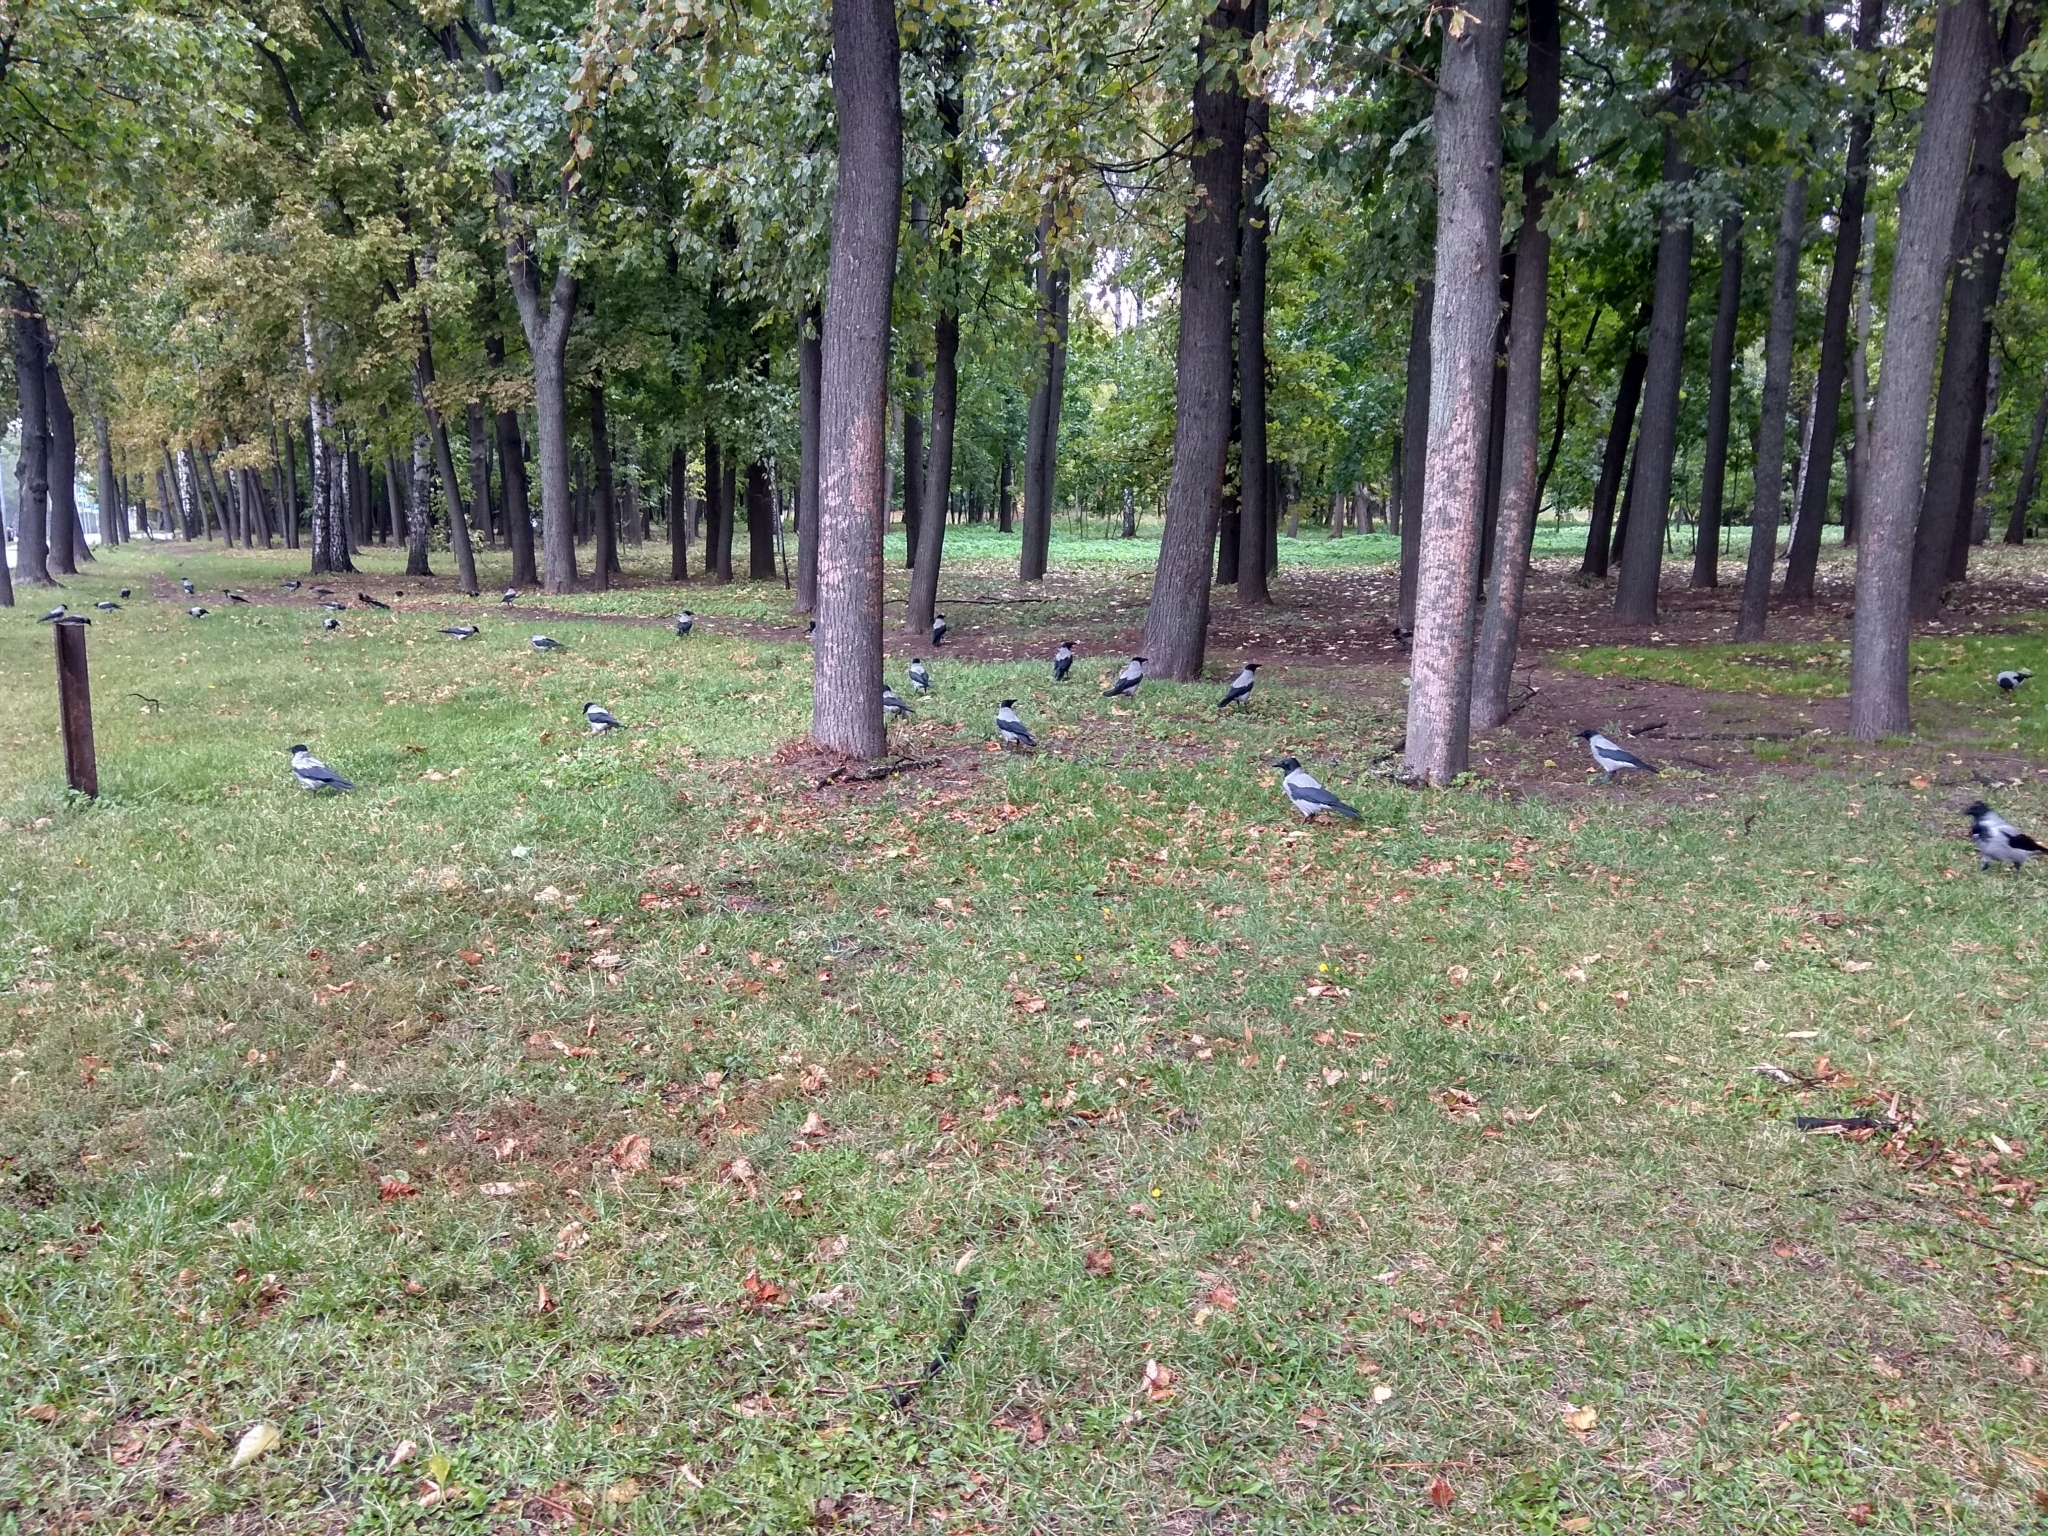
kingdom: Animalia
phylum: Chordata
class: Aves
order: Passeriformes
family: Corvidae
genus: Corvus
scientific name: Corvus cornix
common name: Hooded crow
